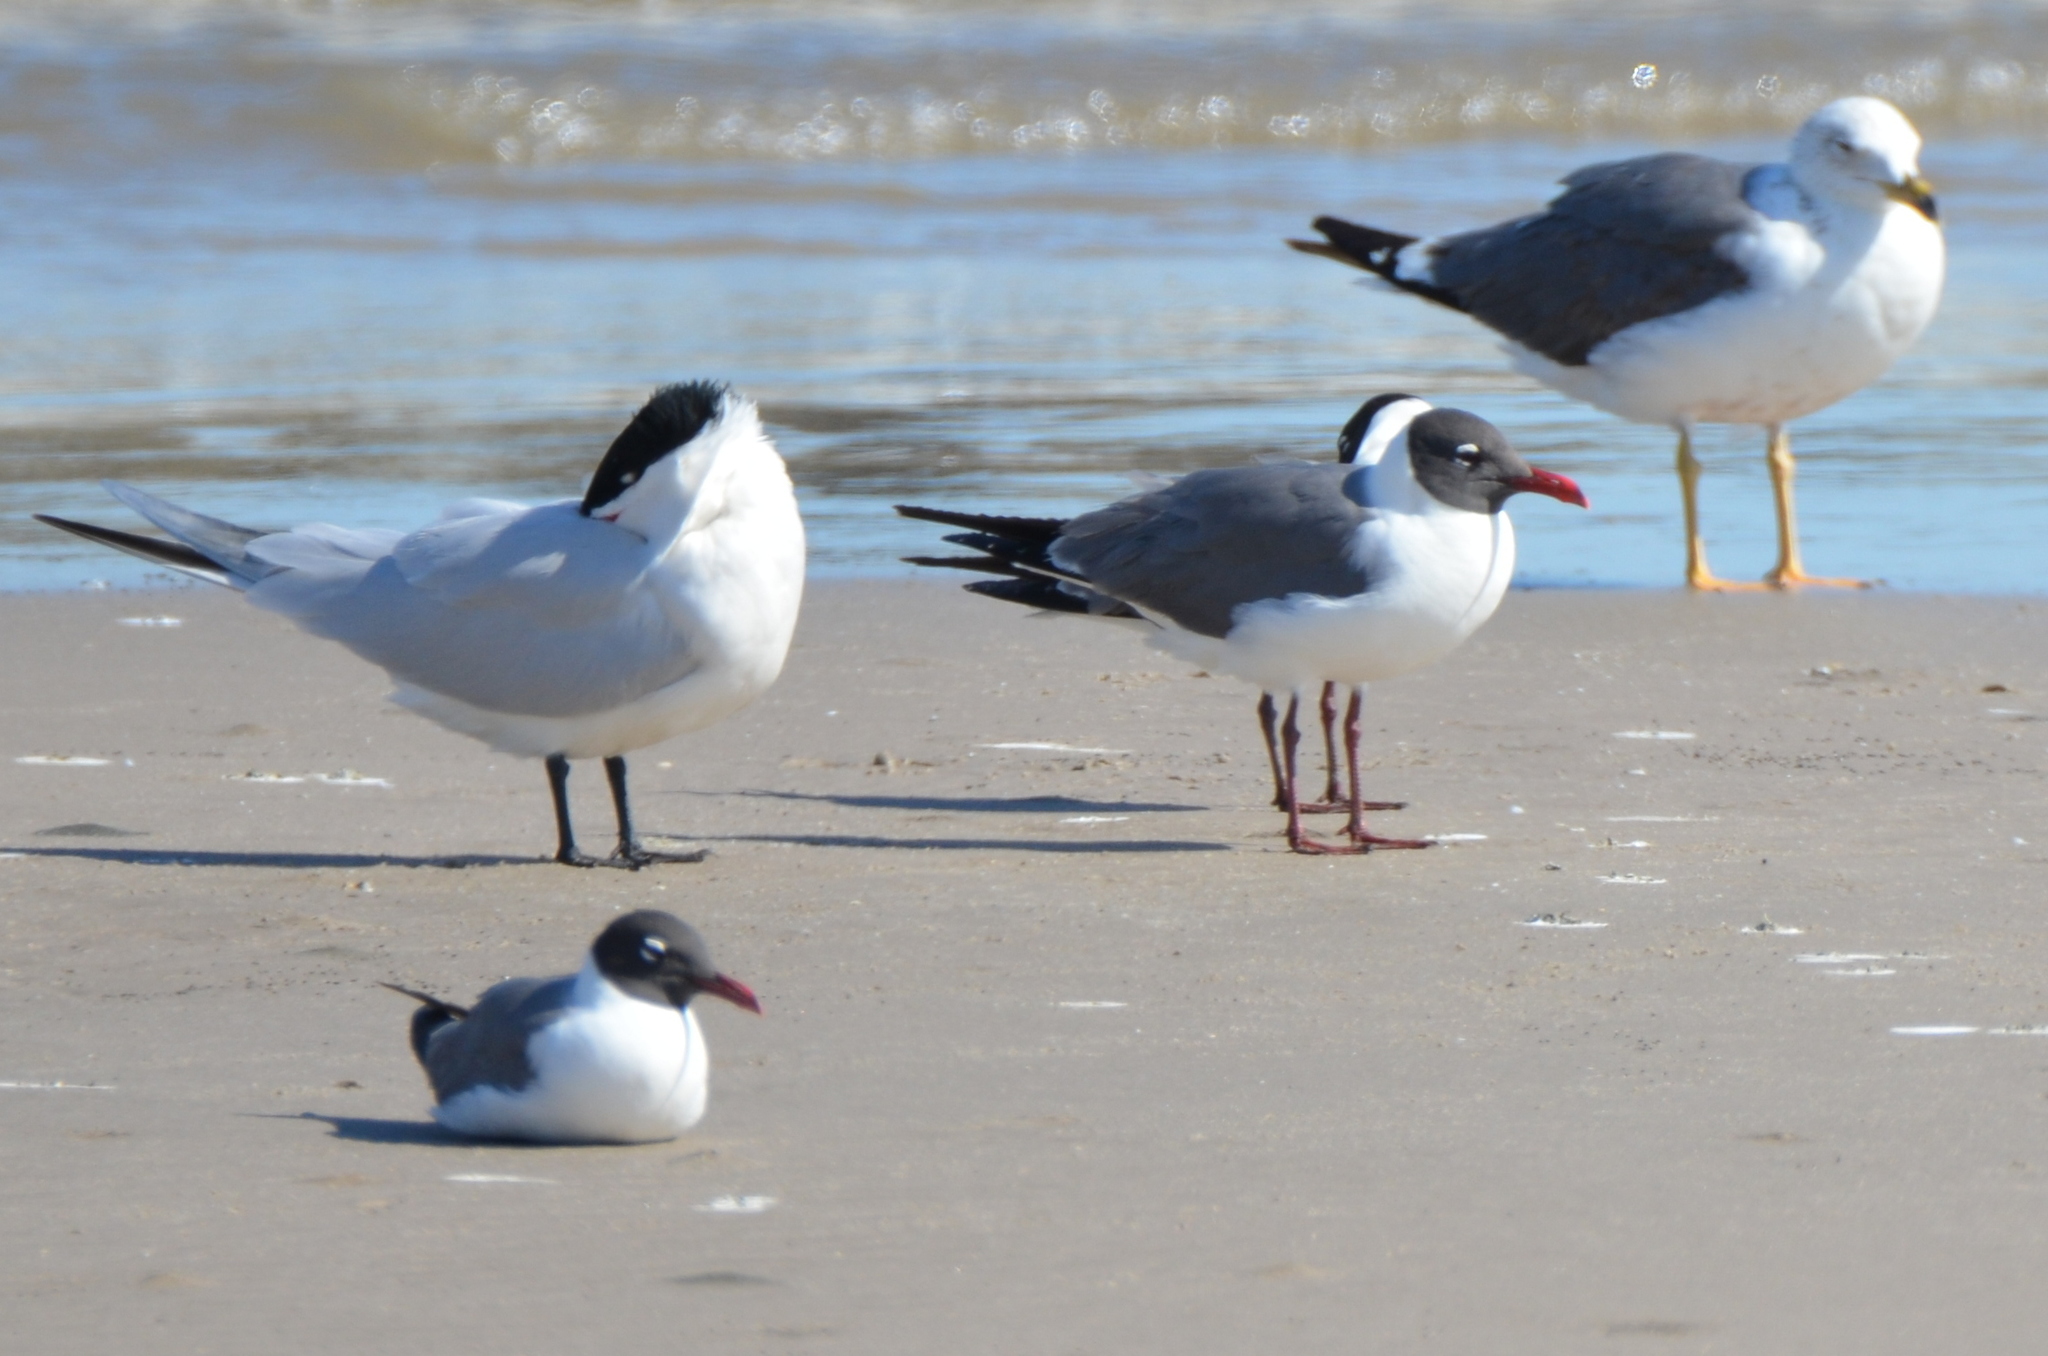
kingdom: Animalia
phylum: Chordata
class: Aves
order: Charadriiformes
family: Laridae
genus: Larus
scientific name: Larus fuscus
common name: Lesser black-backed gull
